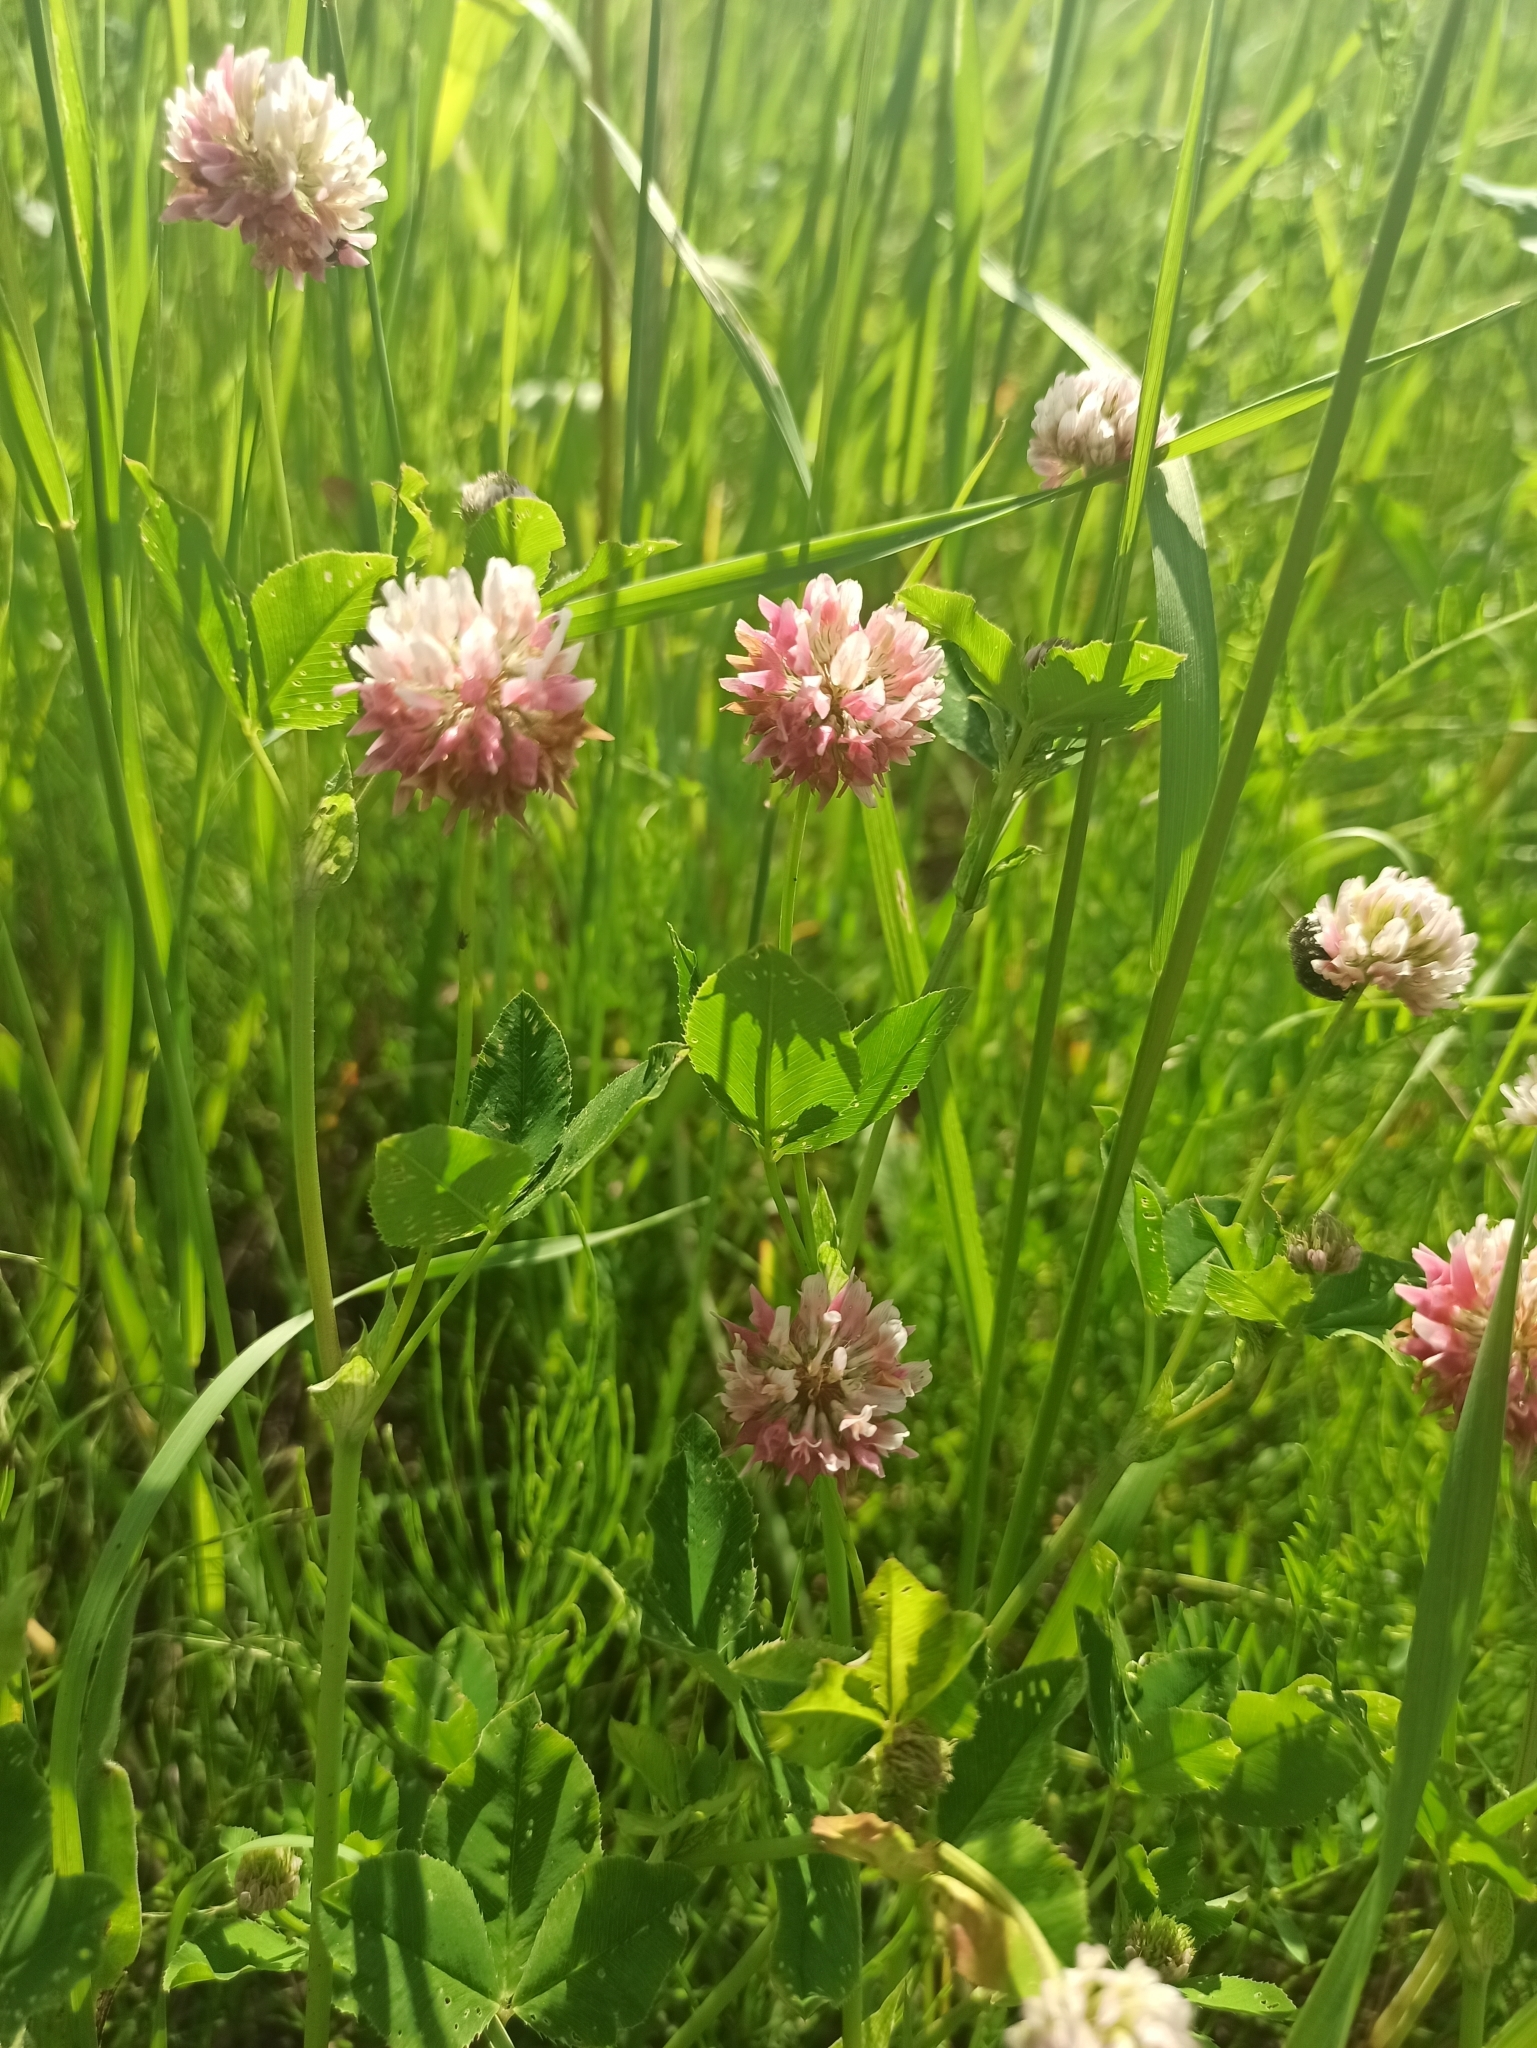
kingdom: Plantae
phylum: Tracheophyta
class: Magnoliopsida
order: Fabales
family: Fabaceae
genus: Trifolium
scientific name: Trifolium hybridum
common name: Alsike clover
